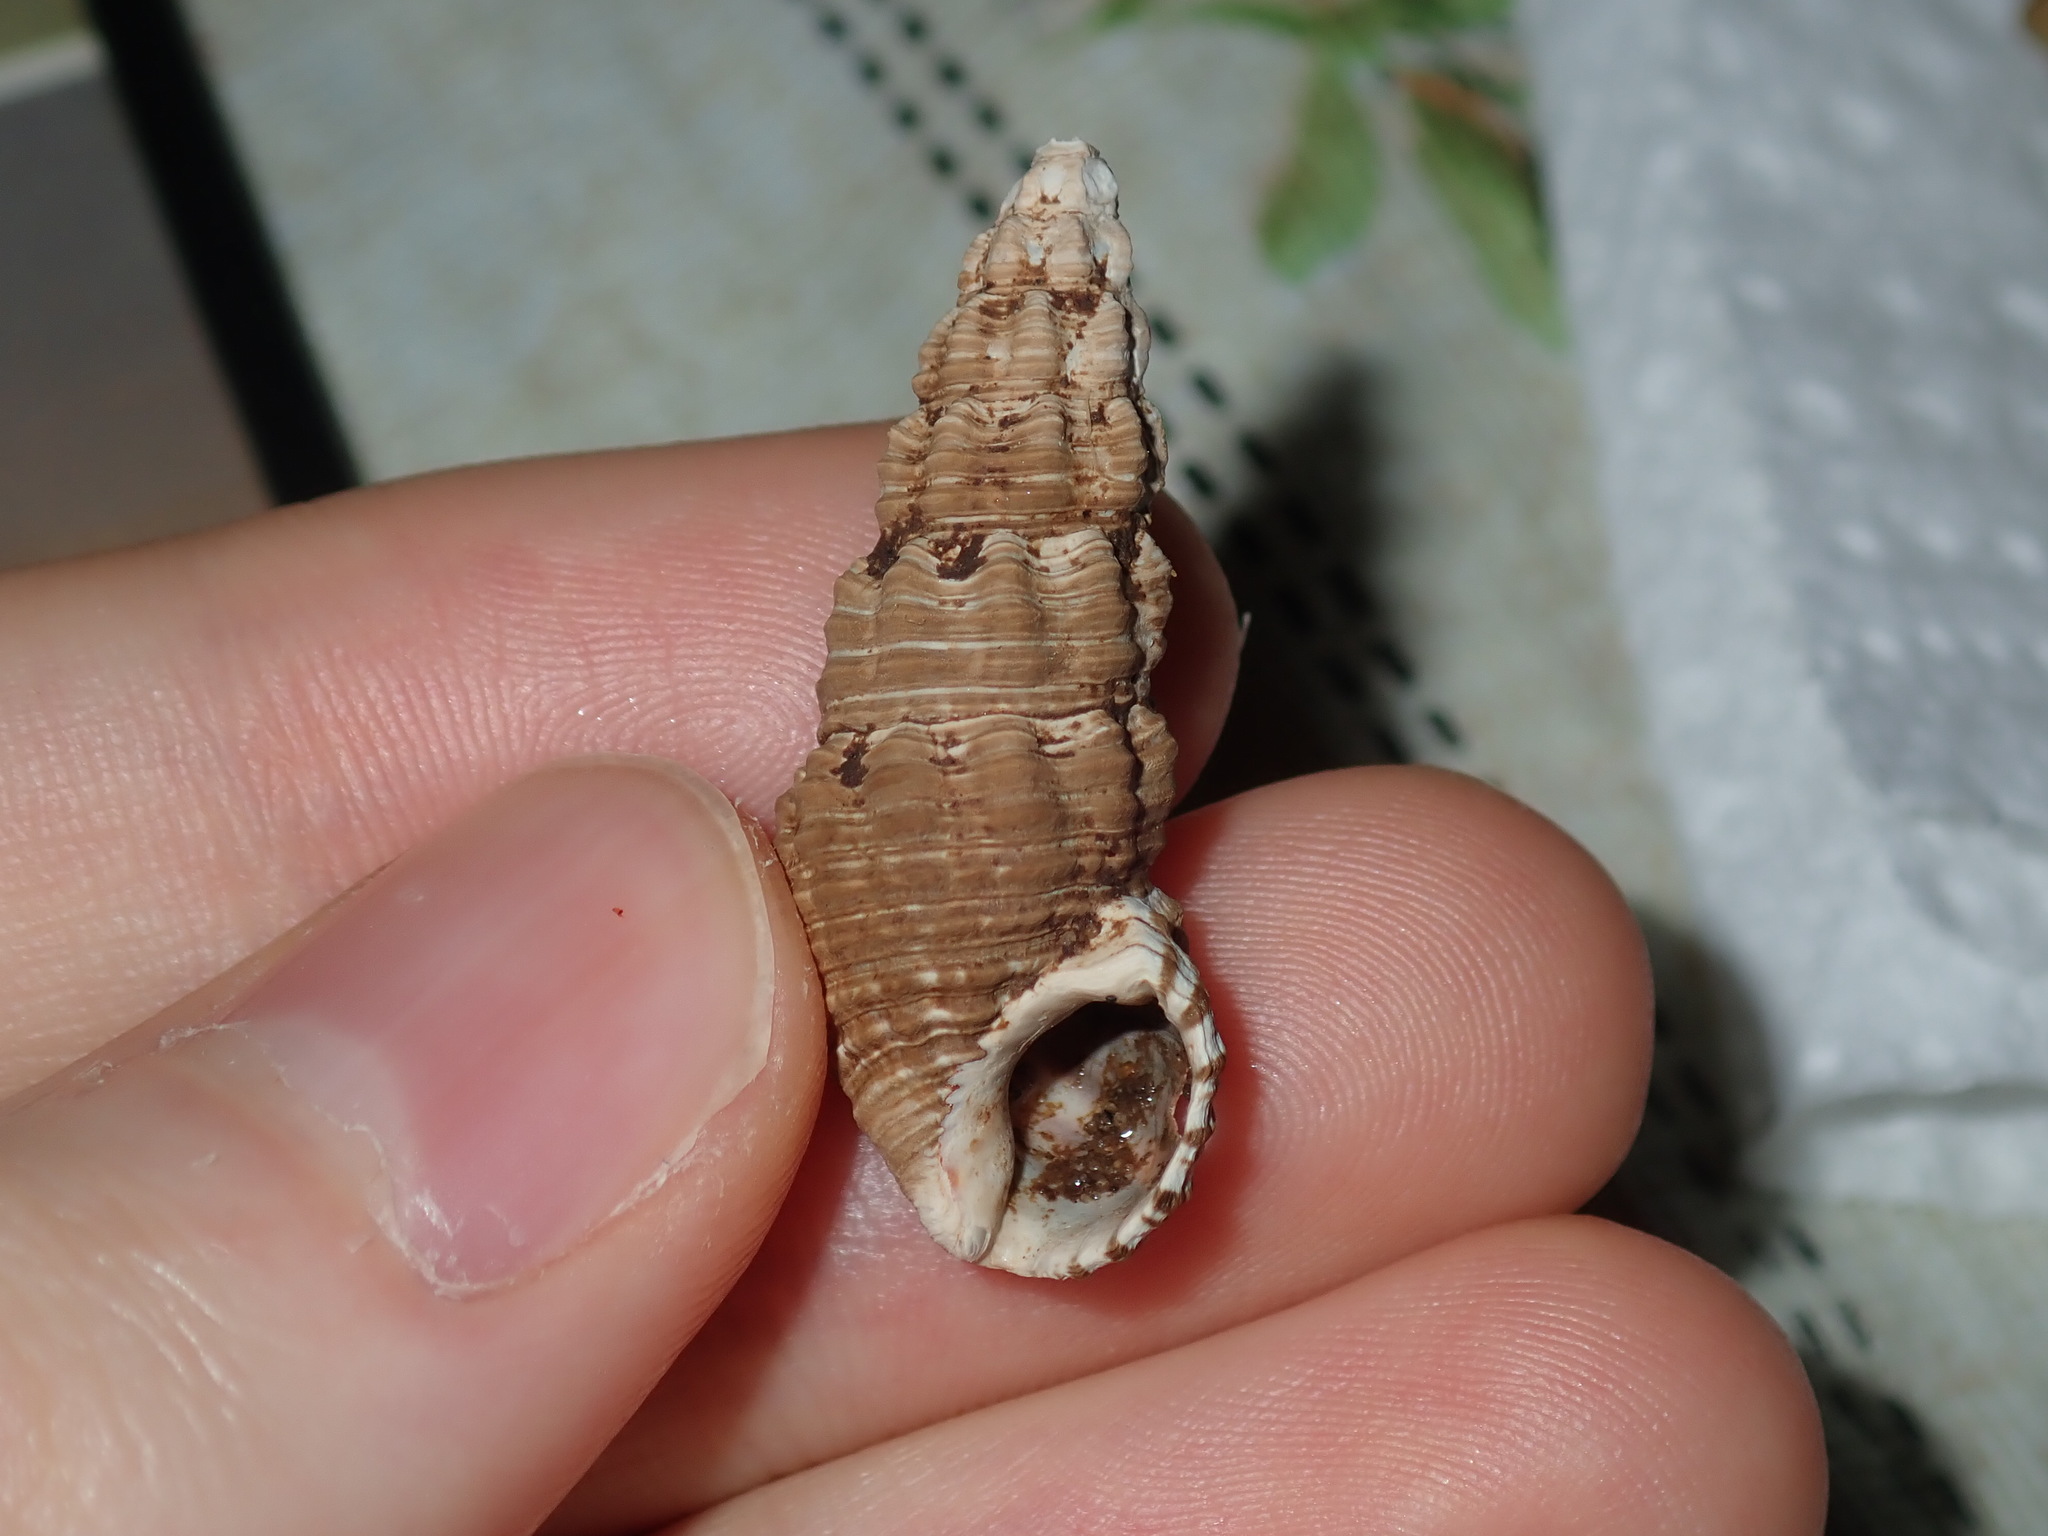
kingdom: Animalia
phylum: Mollusca
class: Gastropoda
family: Batillariidae
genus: Batillaria
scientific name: Batillaria australis
